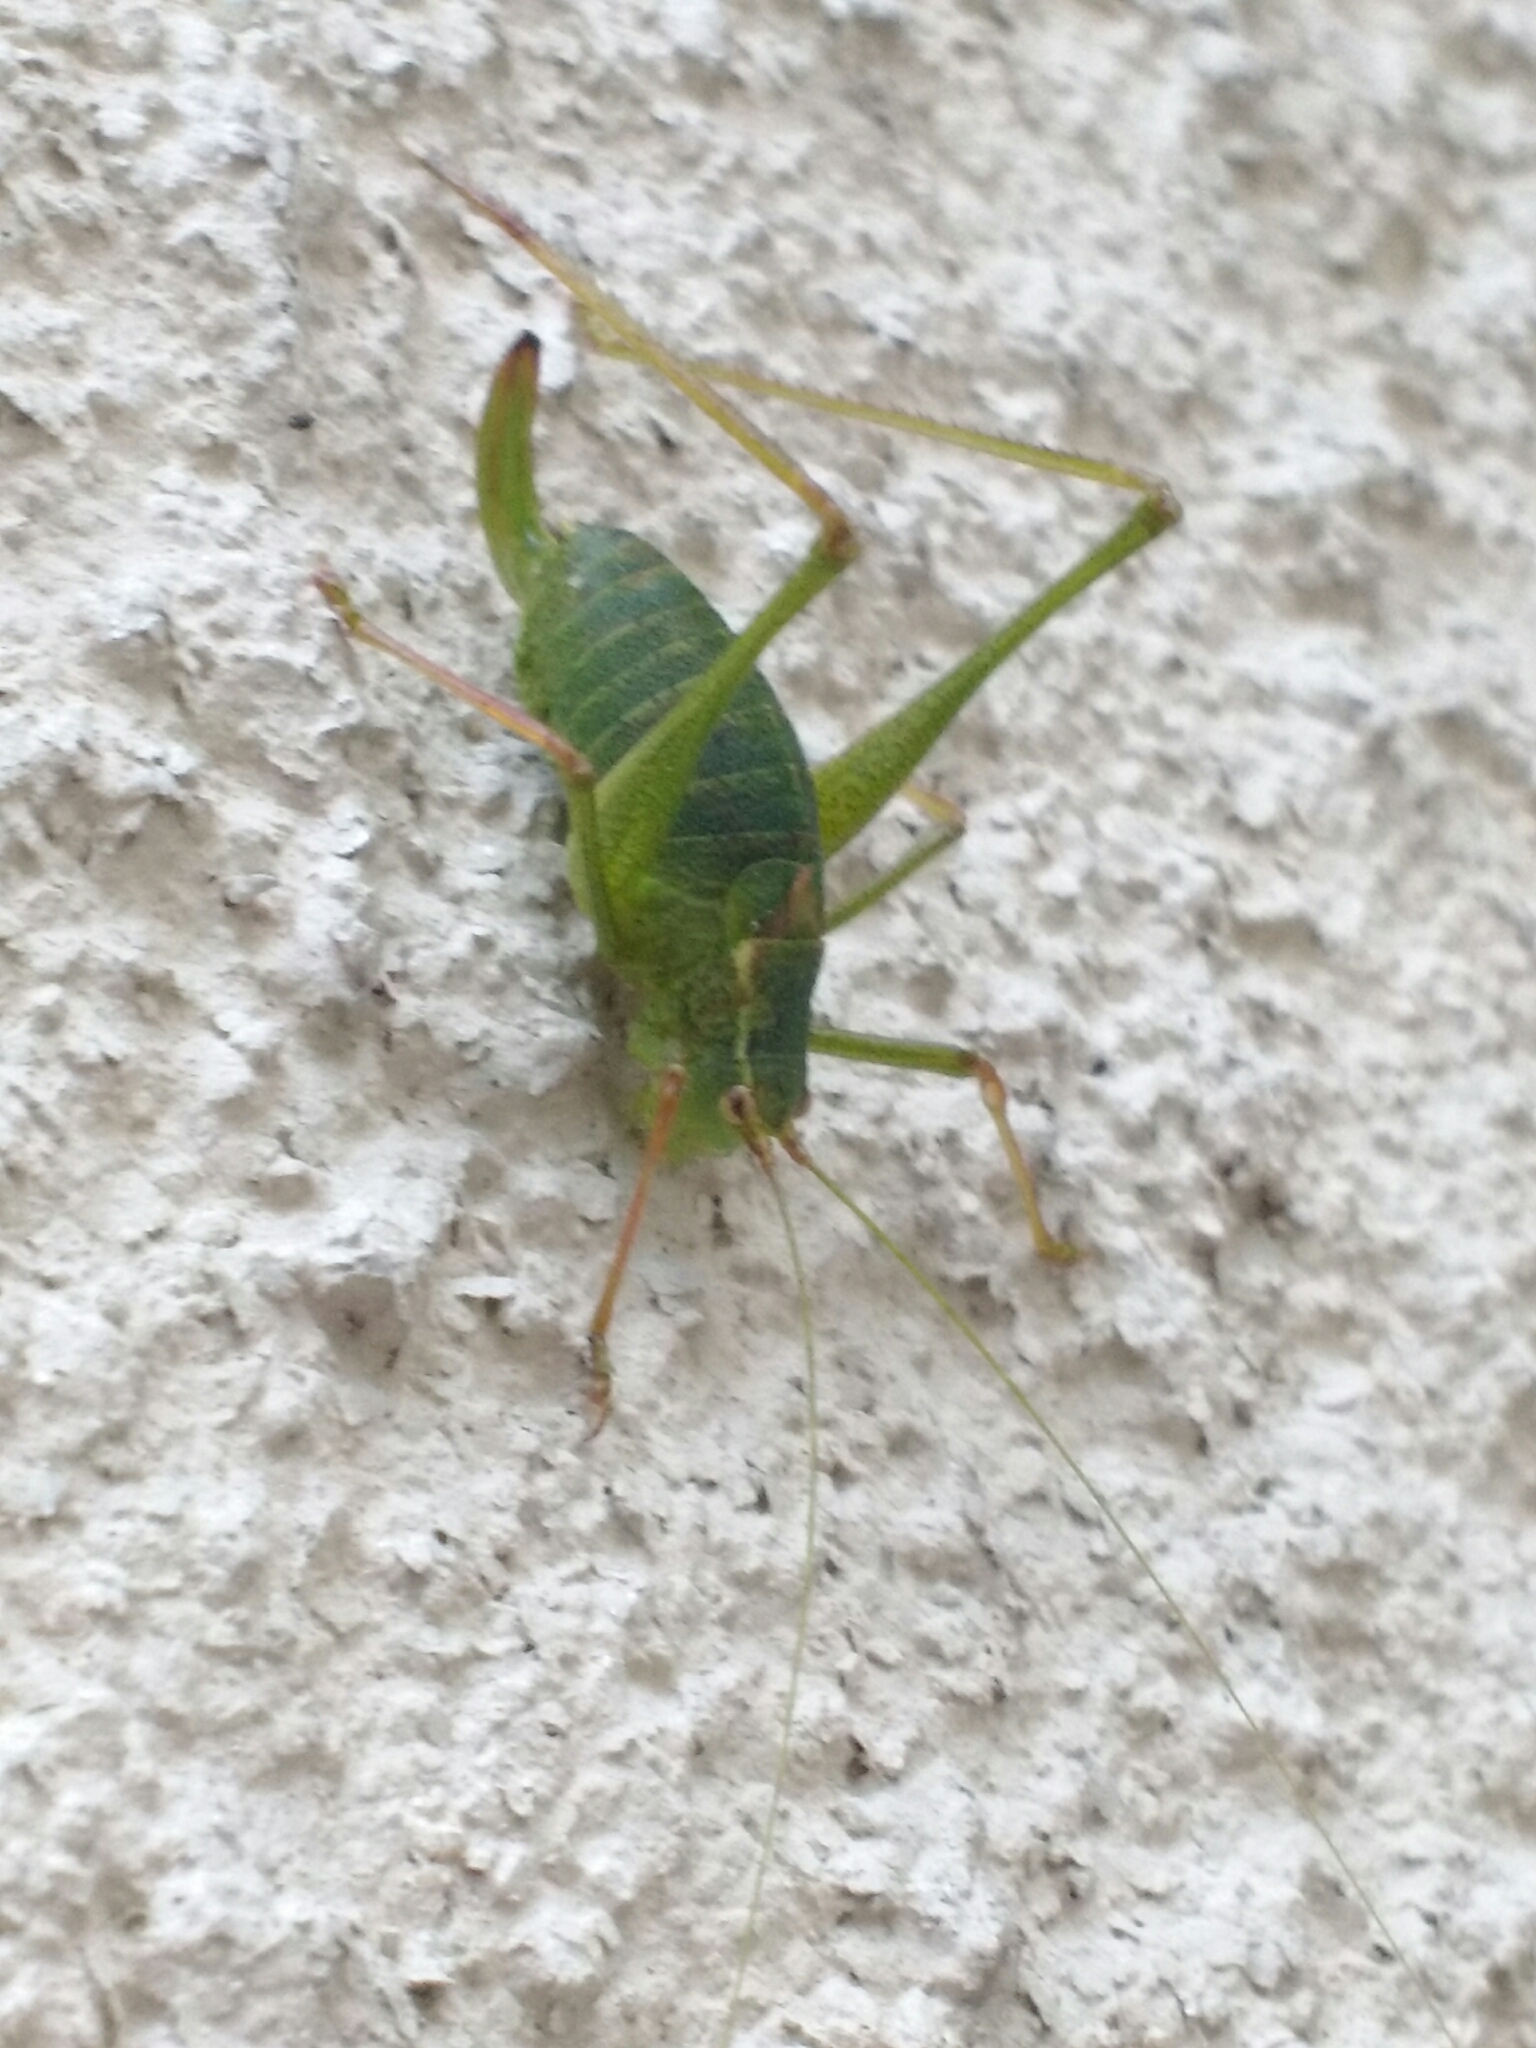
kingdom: Animalia
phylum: Arthropoda
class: Insecta
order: Orthoptera
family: Tettigoniidae
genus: Leptophyes
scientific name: Leptophyes punctatissima
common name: Speckled bush-cricket
